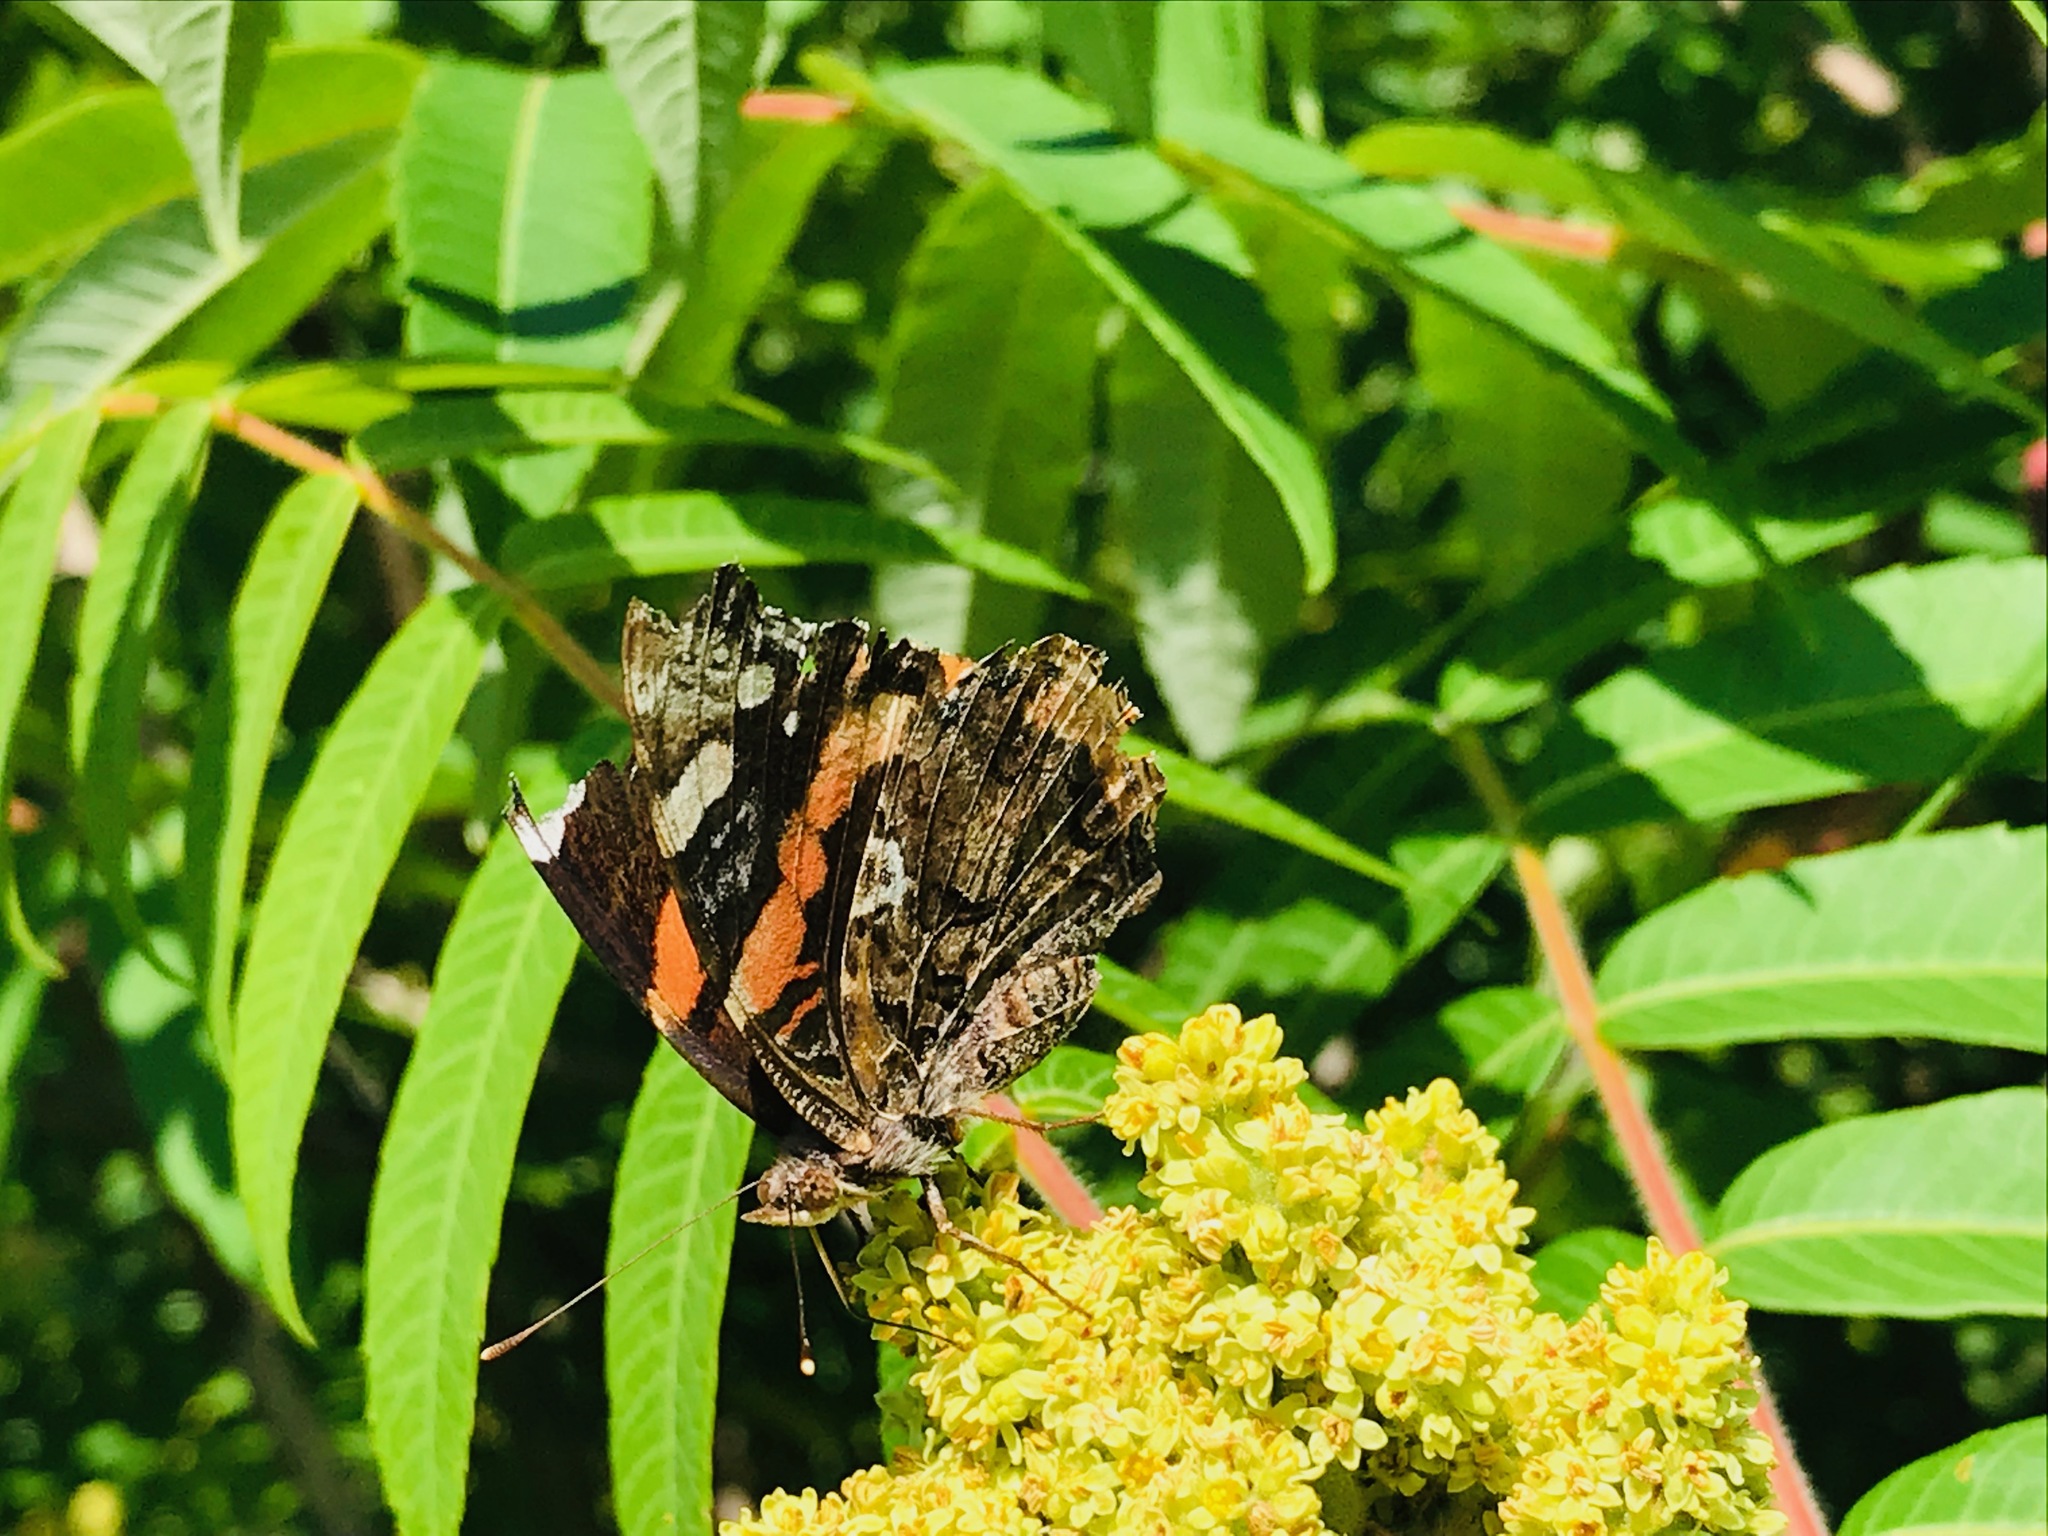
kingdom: Animalia
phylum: Arthropoda
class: Insecta
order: Lepidoptera
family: Nymphalidae
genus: Vanessa
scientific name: Vanessa atalanta
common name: Red admiral
